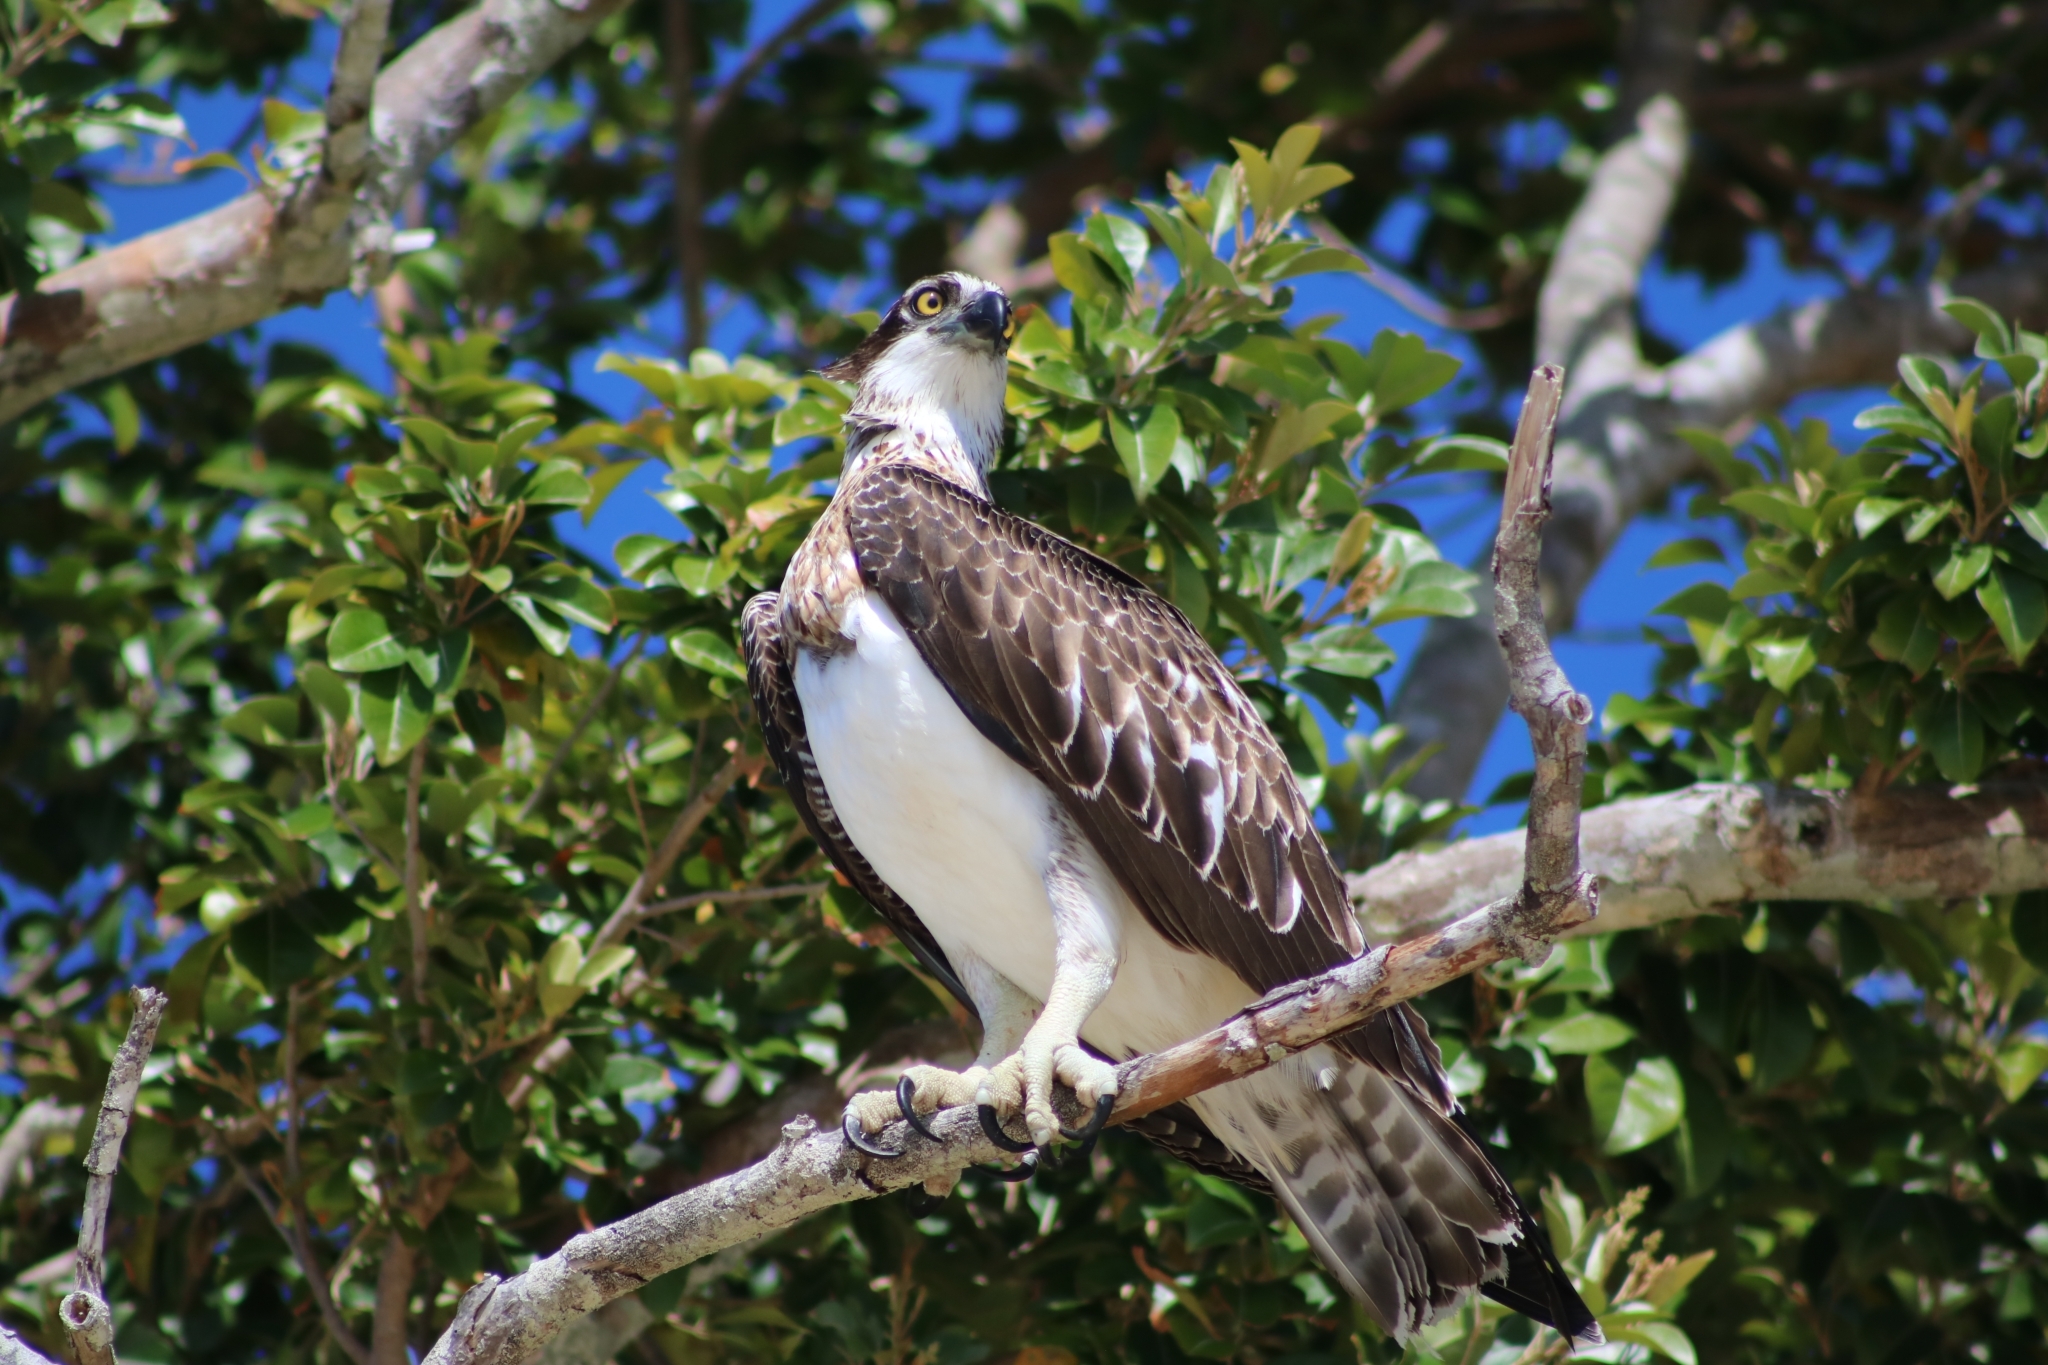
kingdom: Animalia
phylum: Chordata
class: Aves
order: Accipitriformes
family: Pandionidae
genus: Pandion
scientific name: Pandion haliaetus
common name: Osprey
